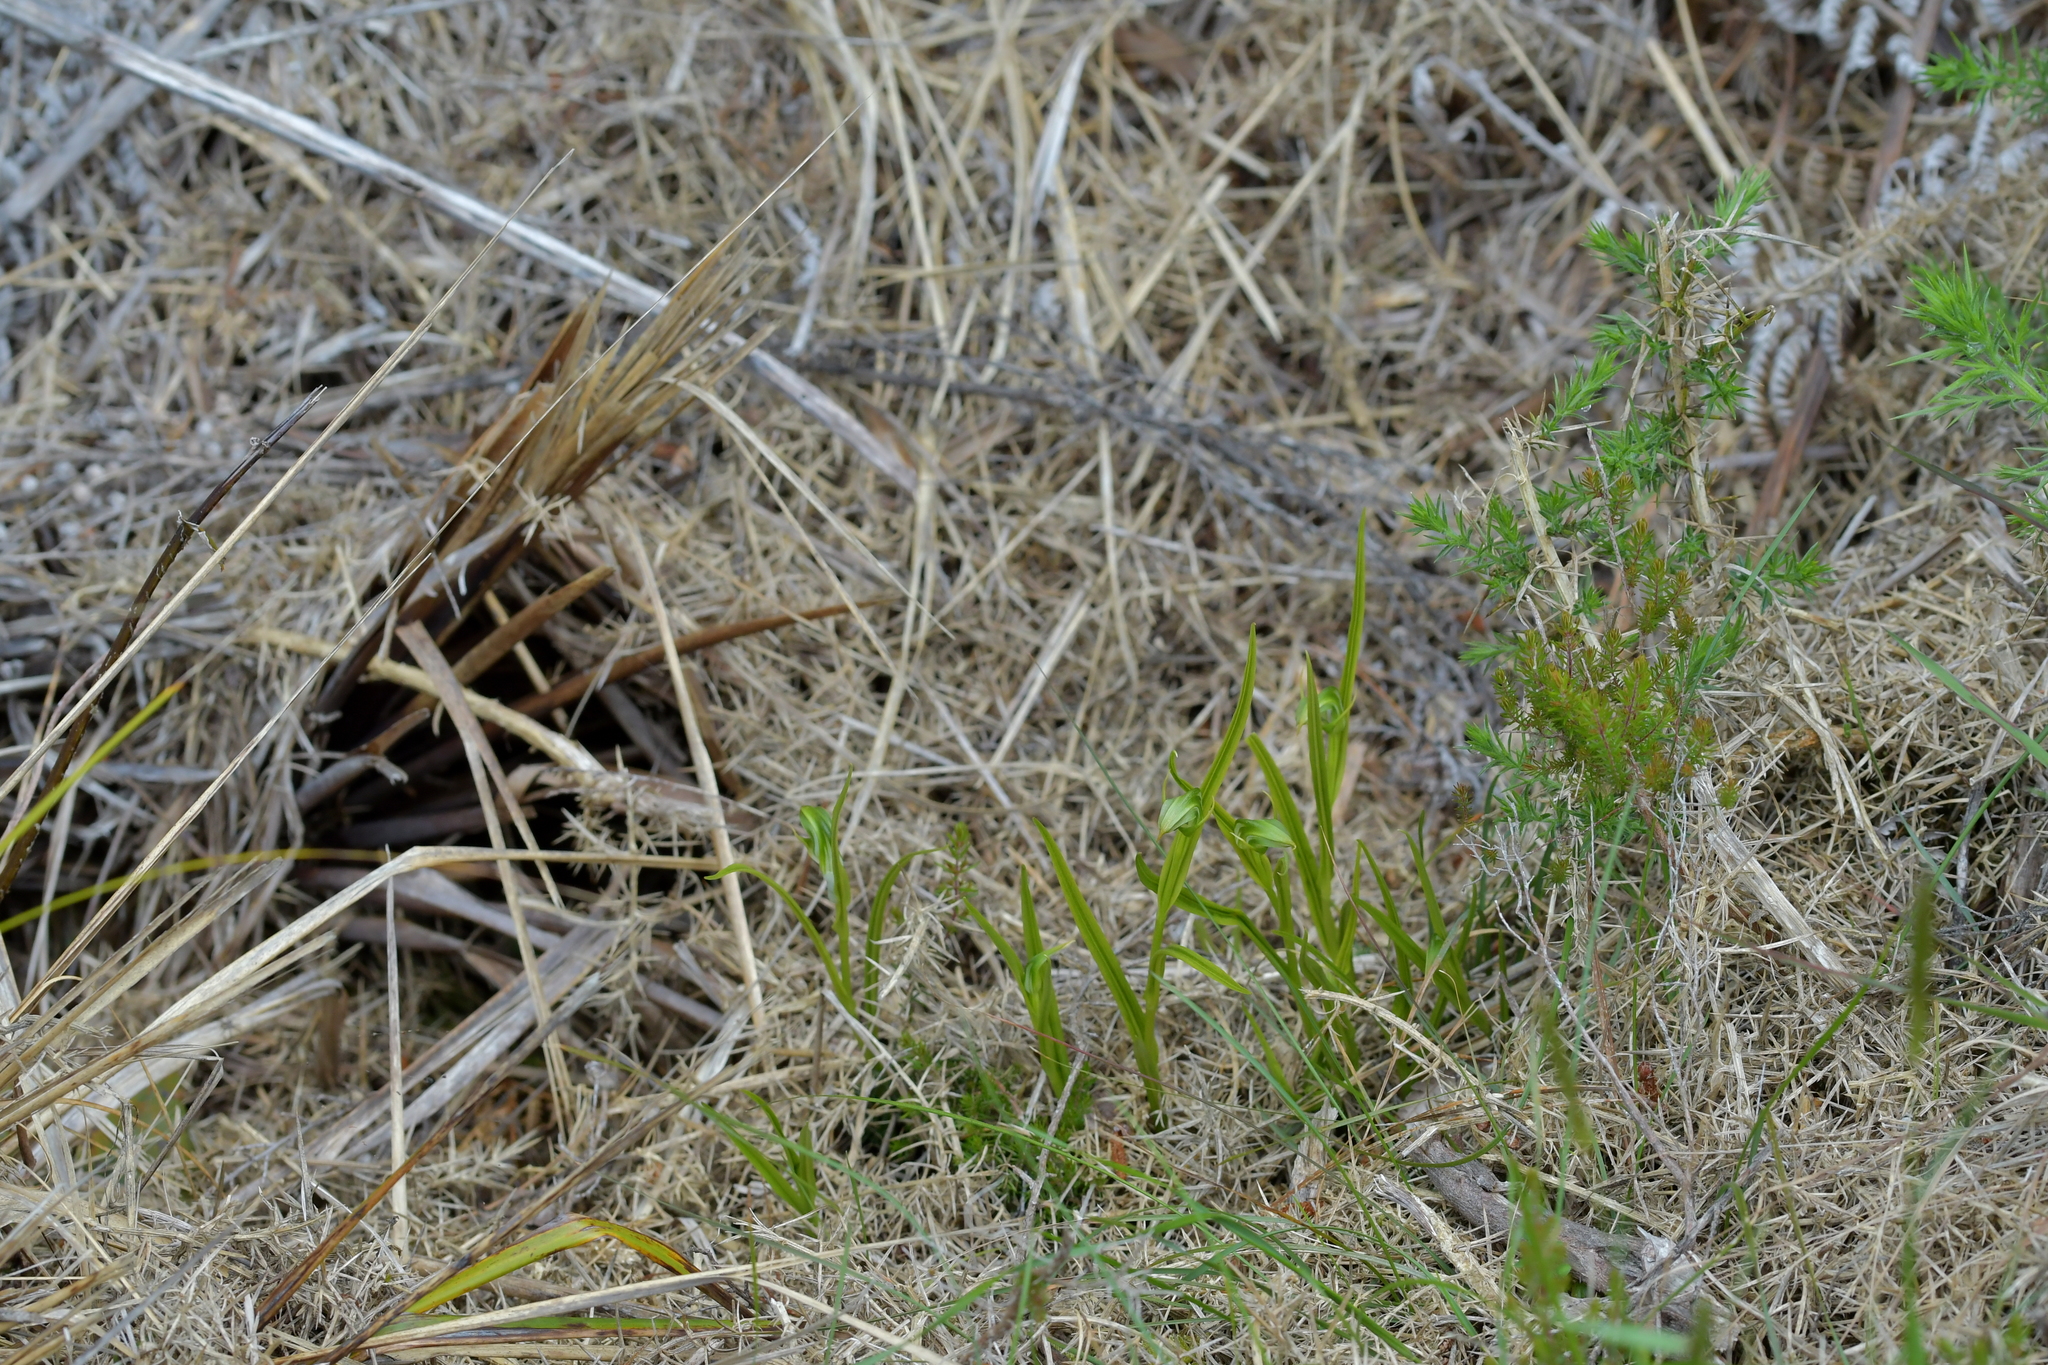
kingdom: Plantae
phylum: Tracheophyta
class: Liliopsida
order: Asparagales
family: Orchidaceae
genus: Pterostylis
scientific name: Pterostylis graminea
